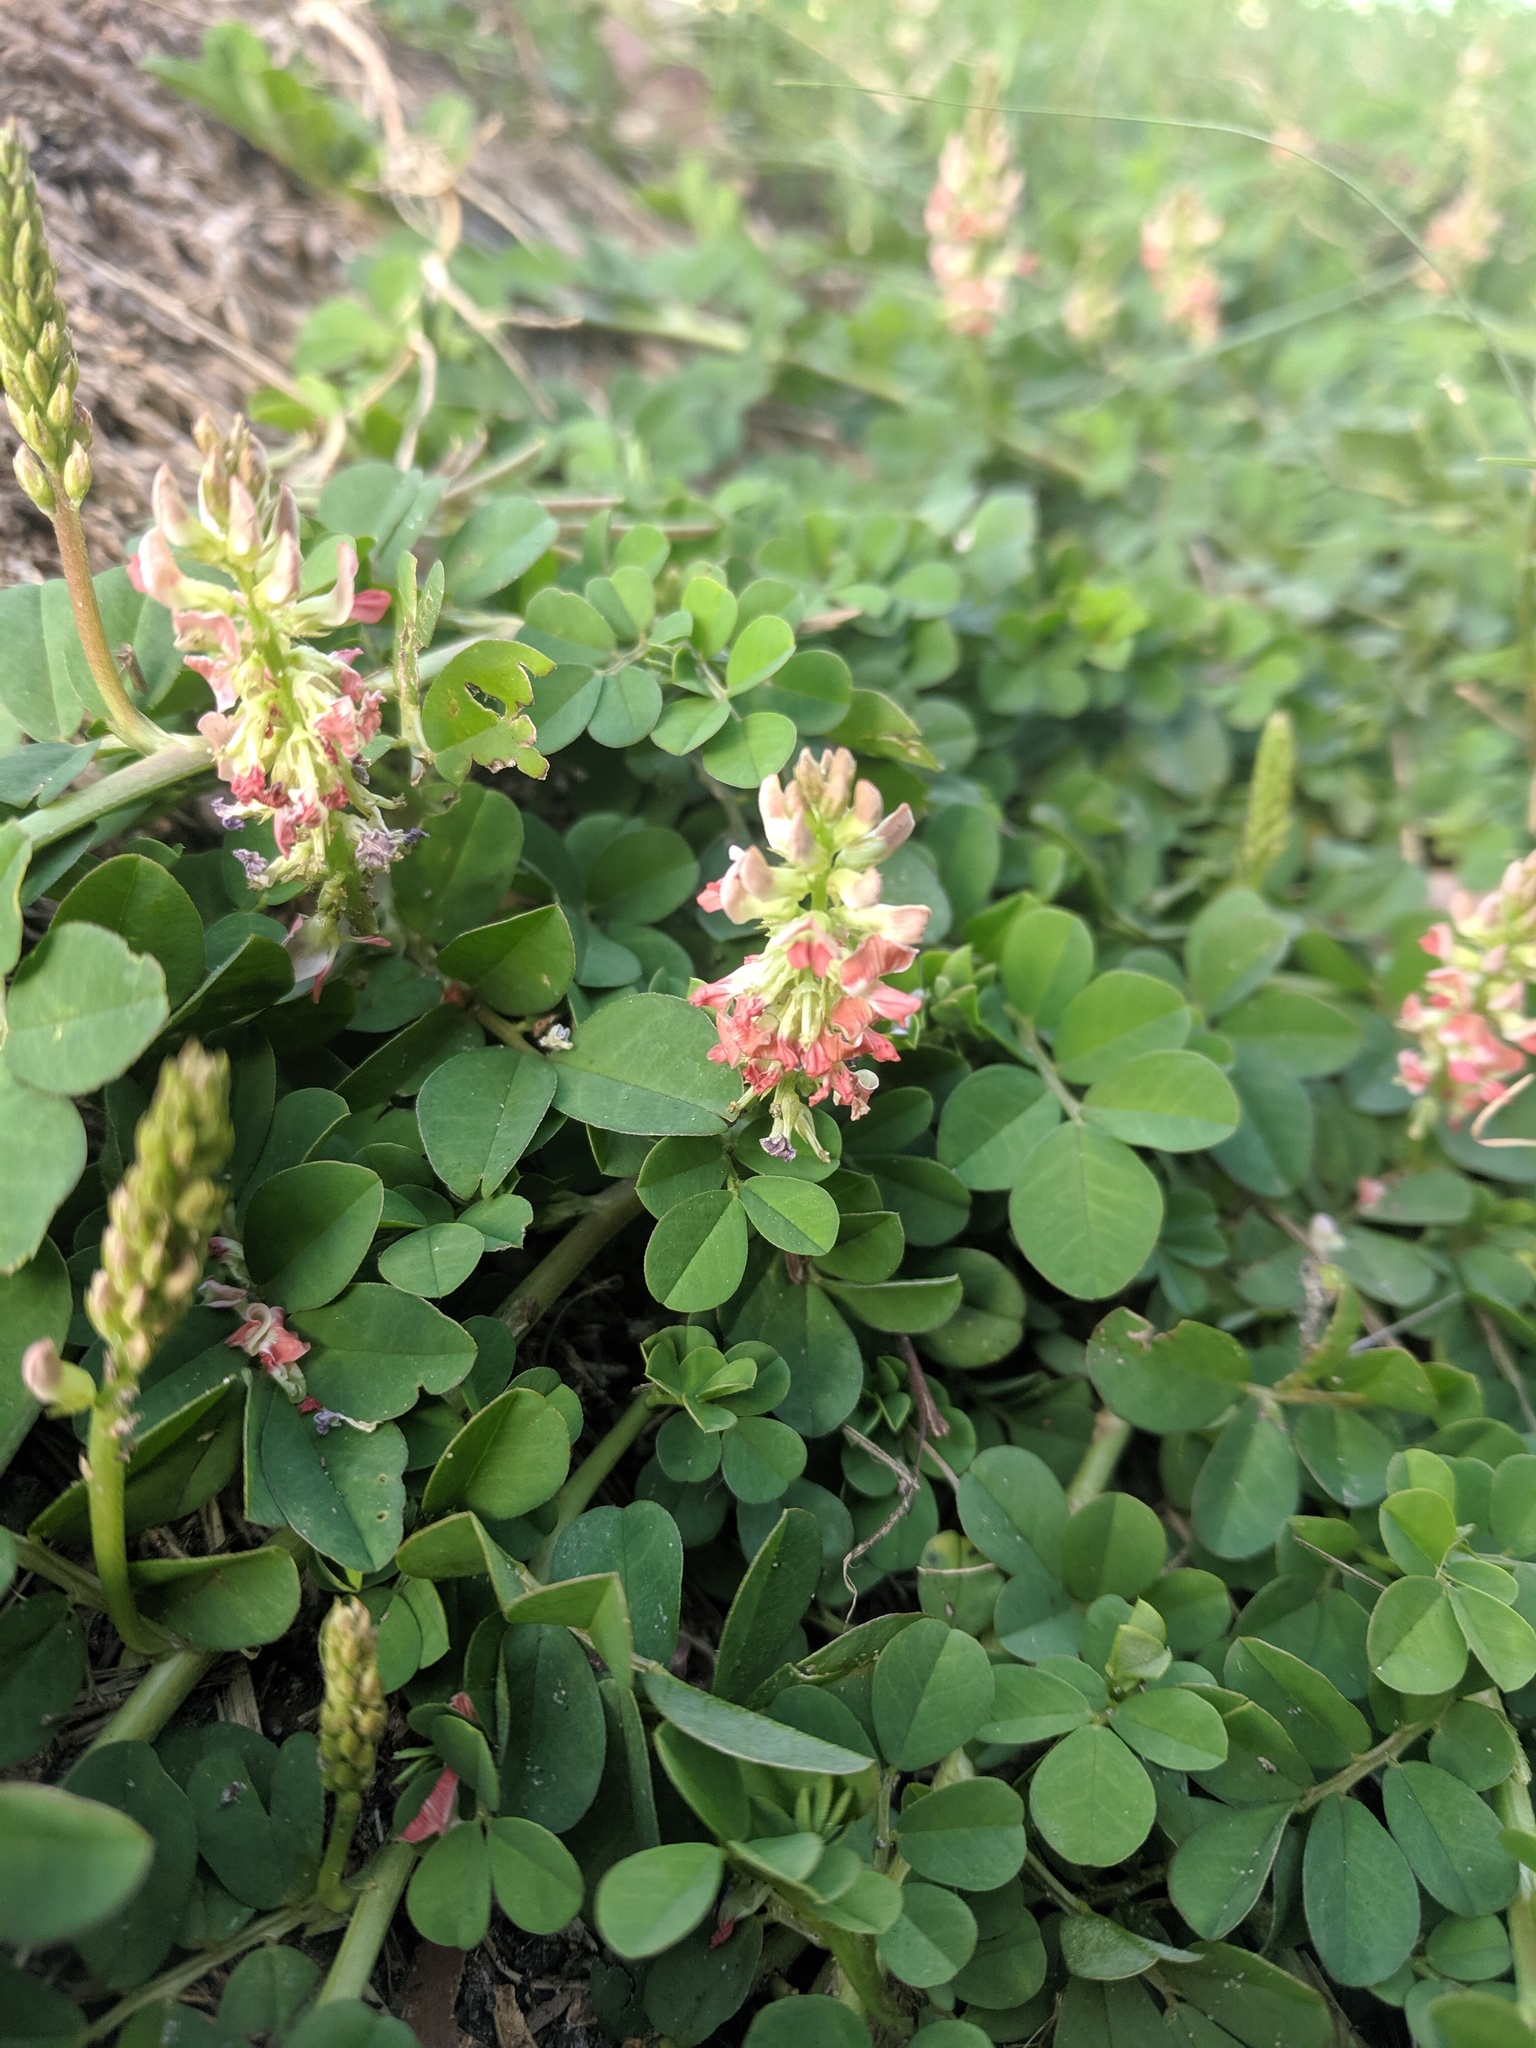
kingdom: Plantae
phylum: Tracheophyta
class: Magnoliopsida
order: Fabales
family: Fabaceae
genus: Indigofera
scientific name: Indigofera spicata
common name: Creeping indigo
